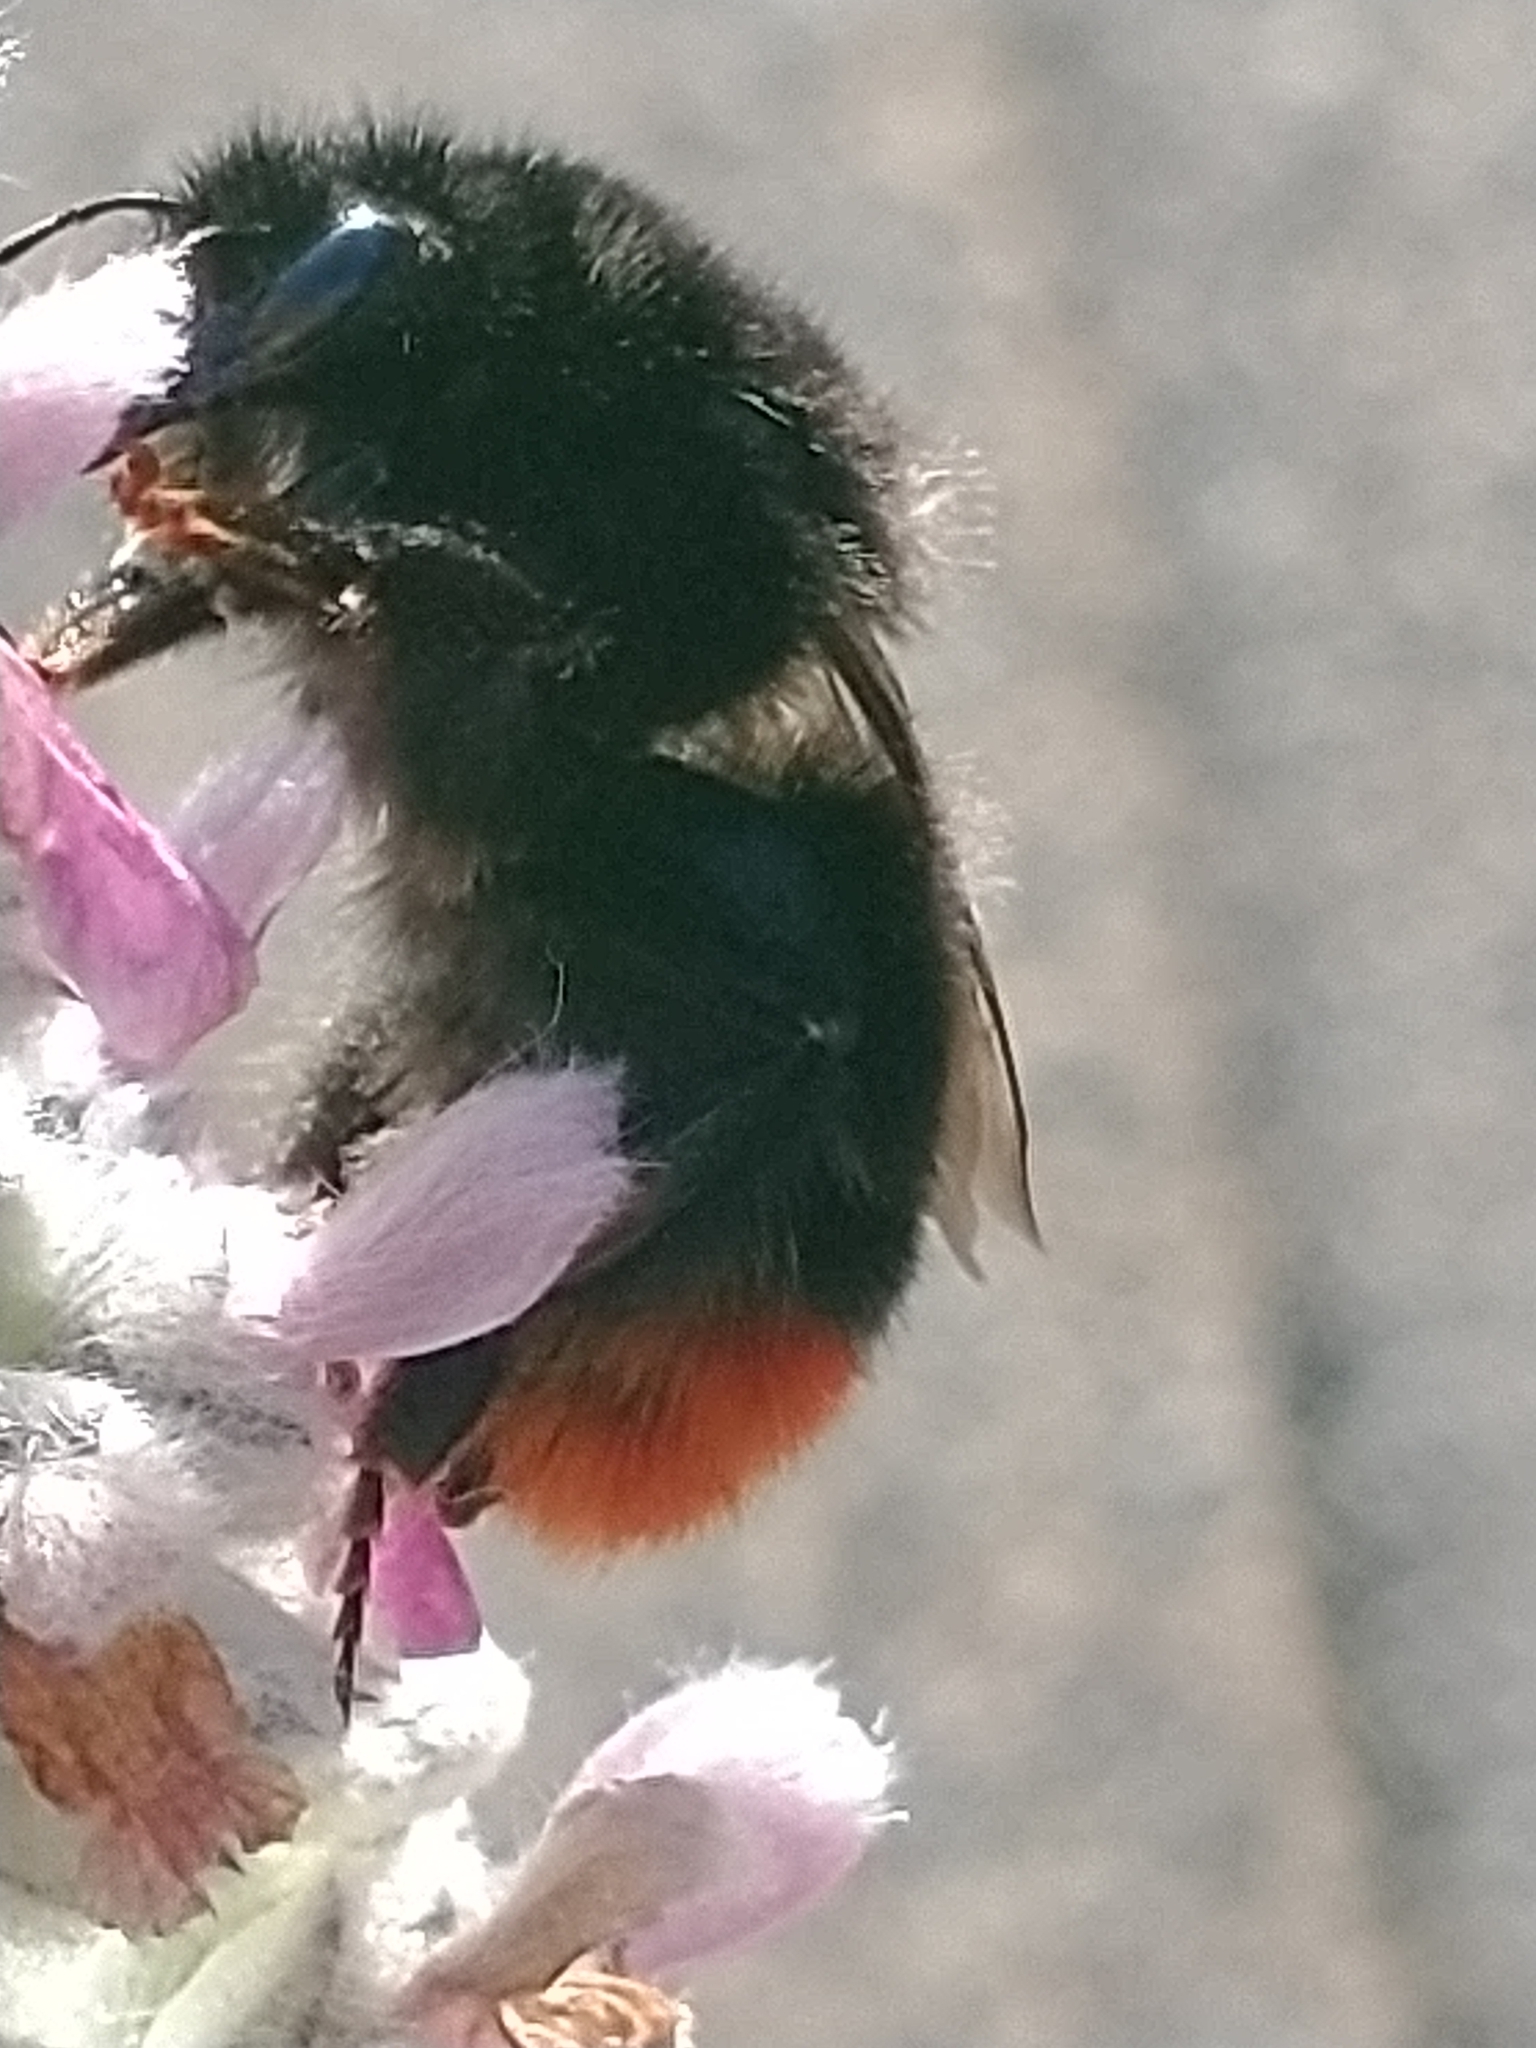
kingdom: Animalia
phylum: Arthropoda
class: Insecta
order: Hymenoptera
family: Apidae
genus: Bombus
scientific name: Bombus lapidarius
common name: Large red-tailed humble-bee
